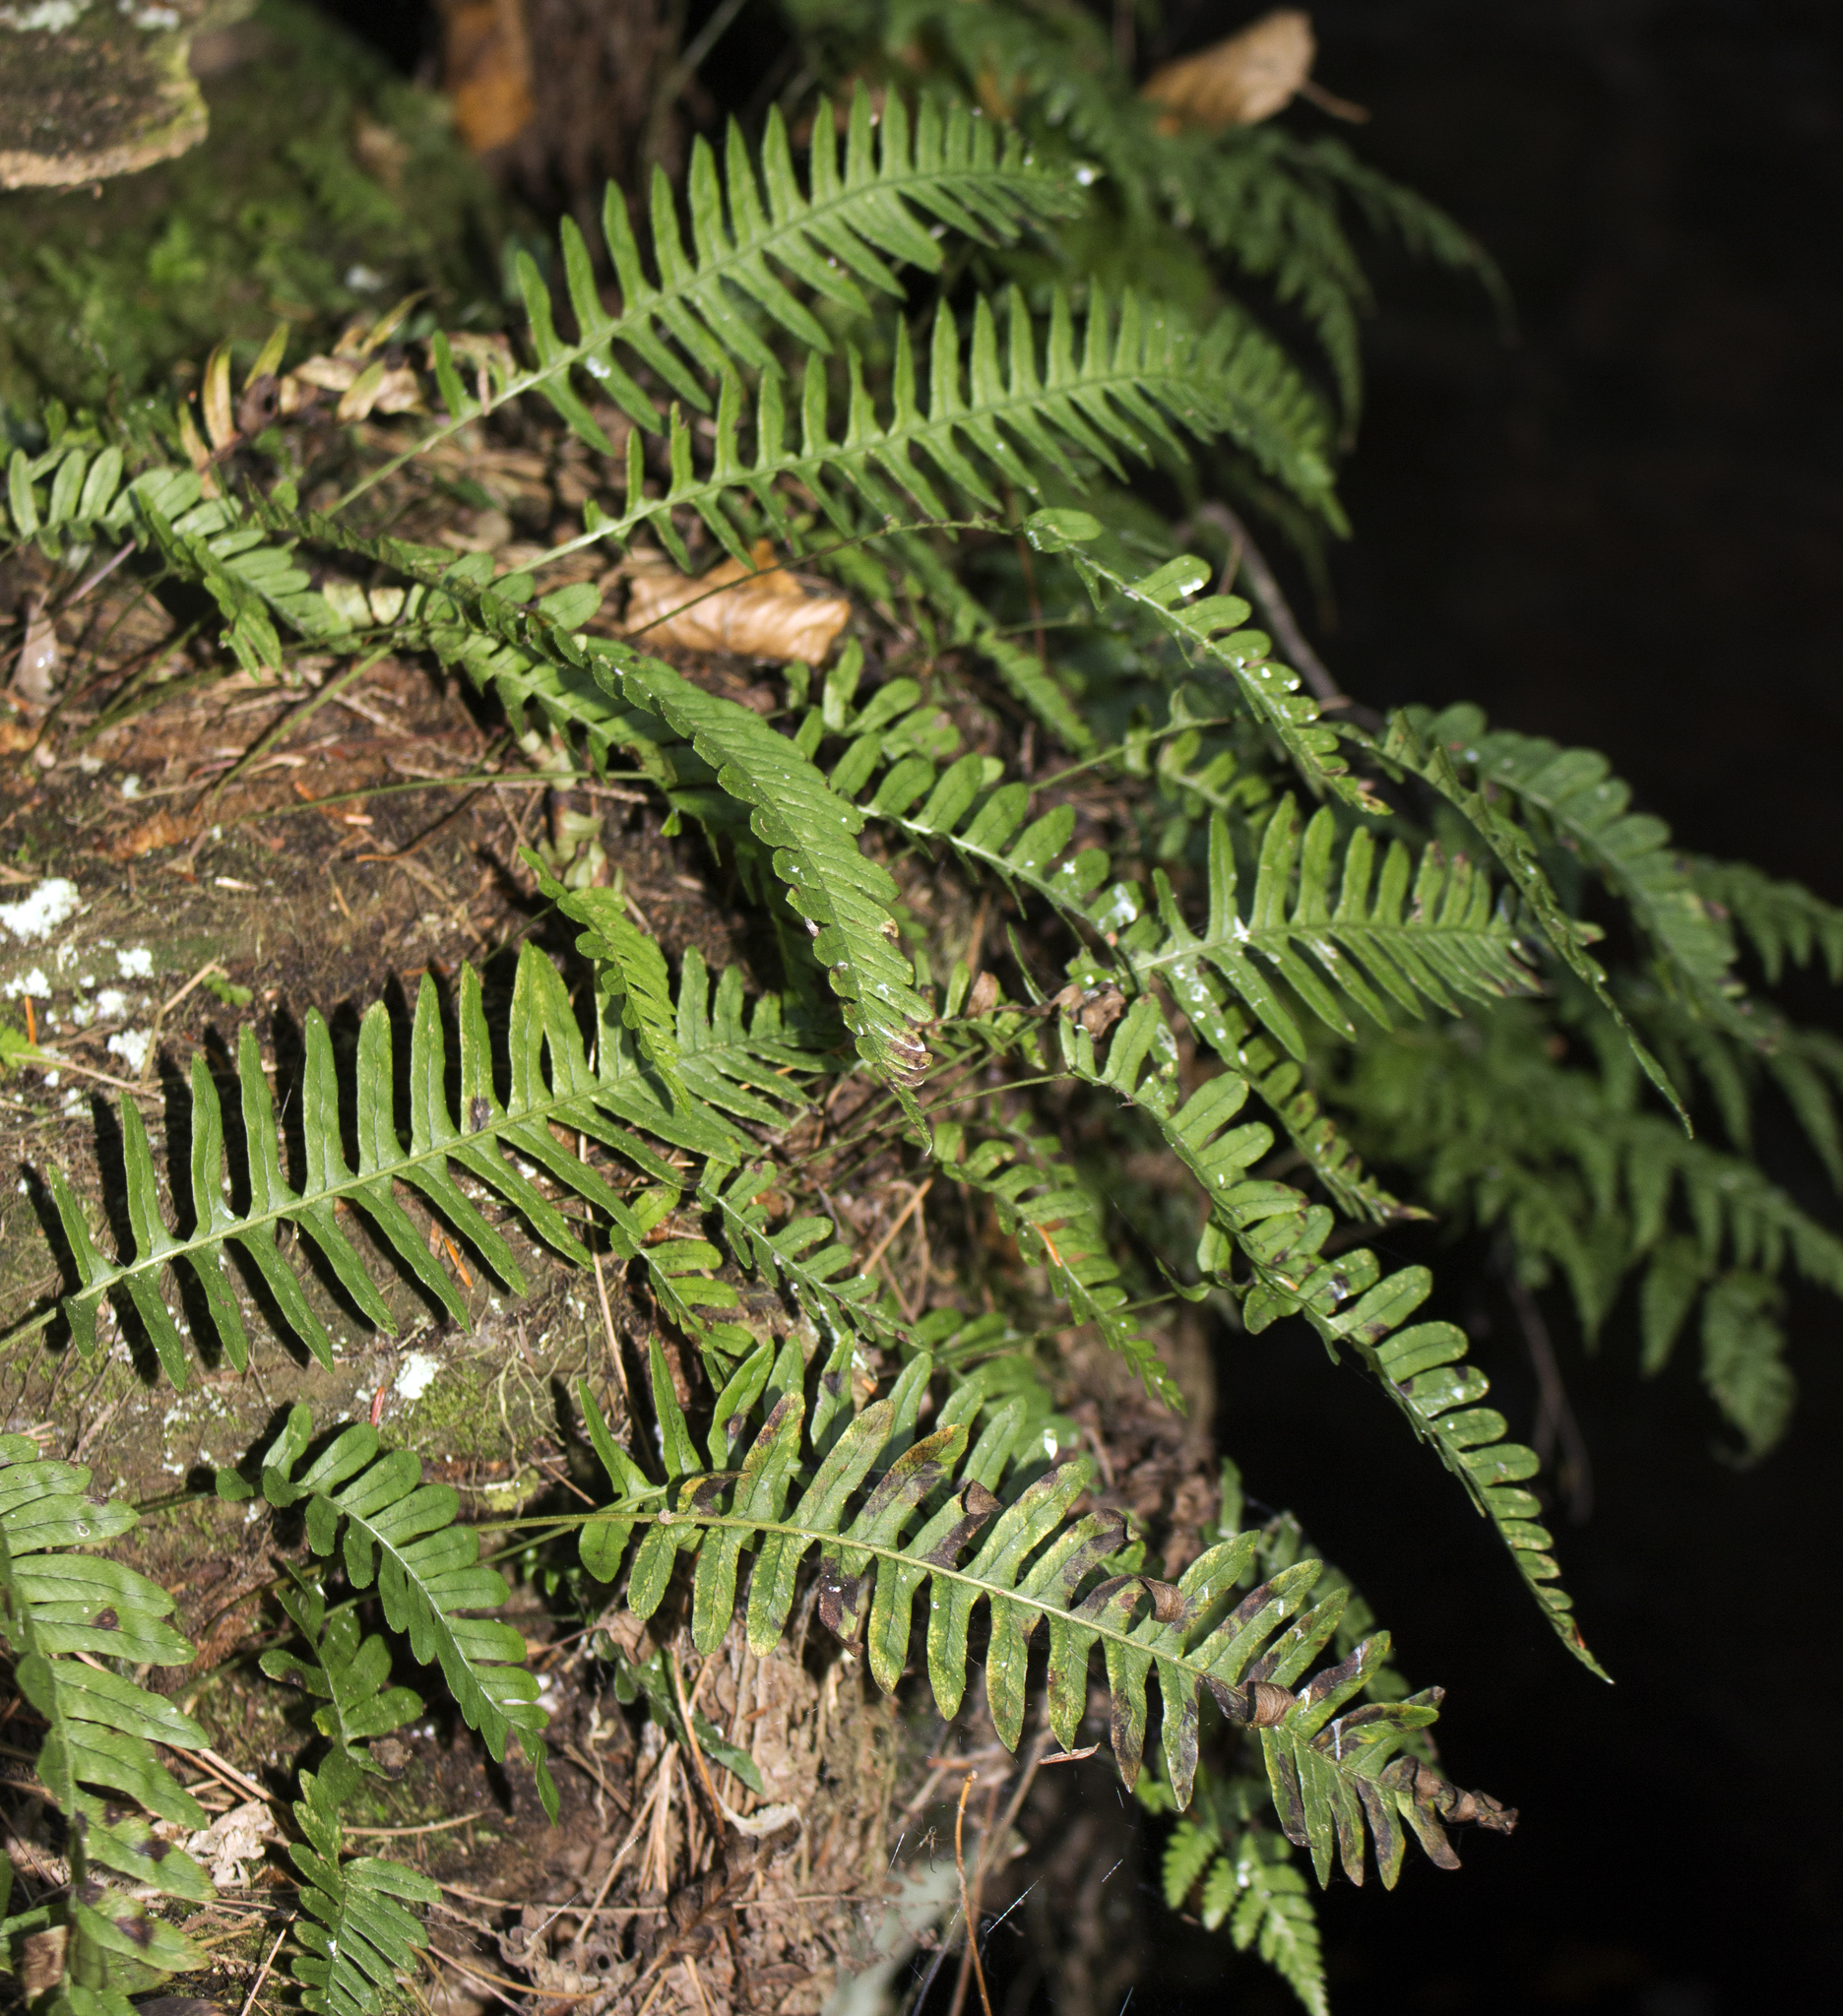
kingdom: Plantae
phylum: Tracheophyta
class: Polypodiopsida
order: Polypodiales
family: Polypodiaceae
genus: Polypodium
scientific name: Polypodium virginianum
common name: American wall fern
